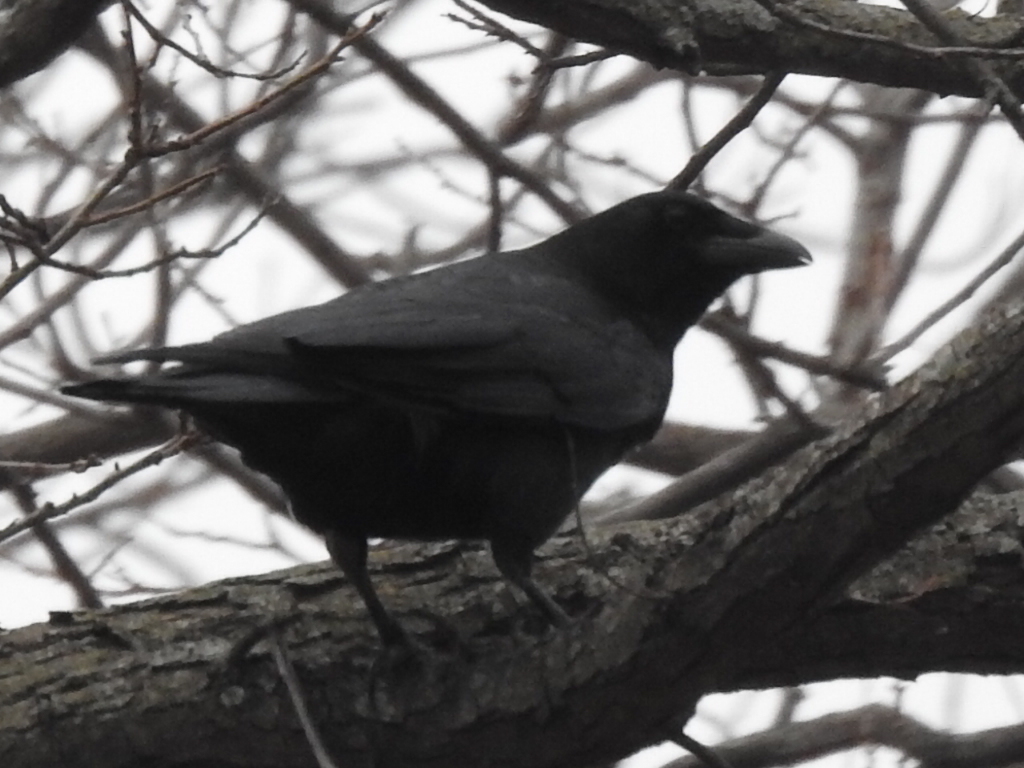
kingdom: Animalia
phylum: Chordata
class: Aves
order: Passeriformes
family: Corvidae
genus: Corvus
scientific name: Corvus brachyrhynchos
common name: American crow
